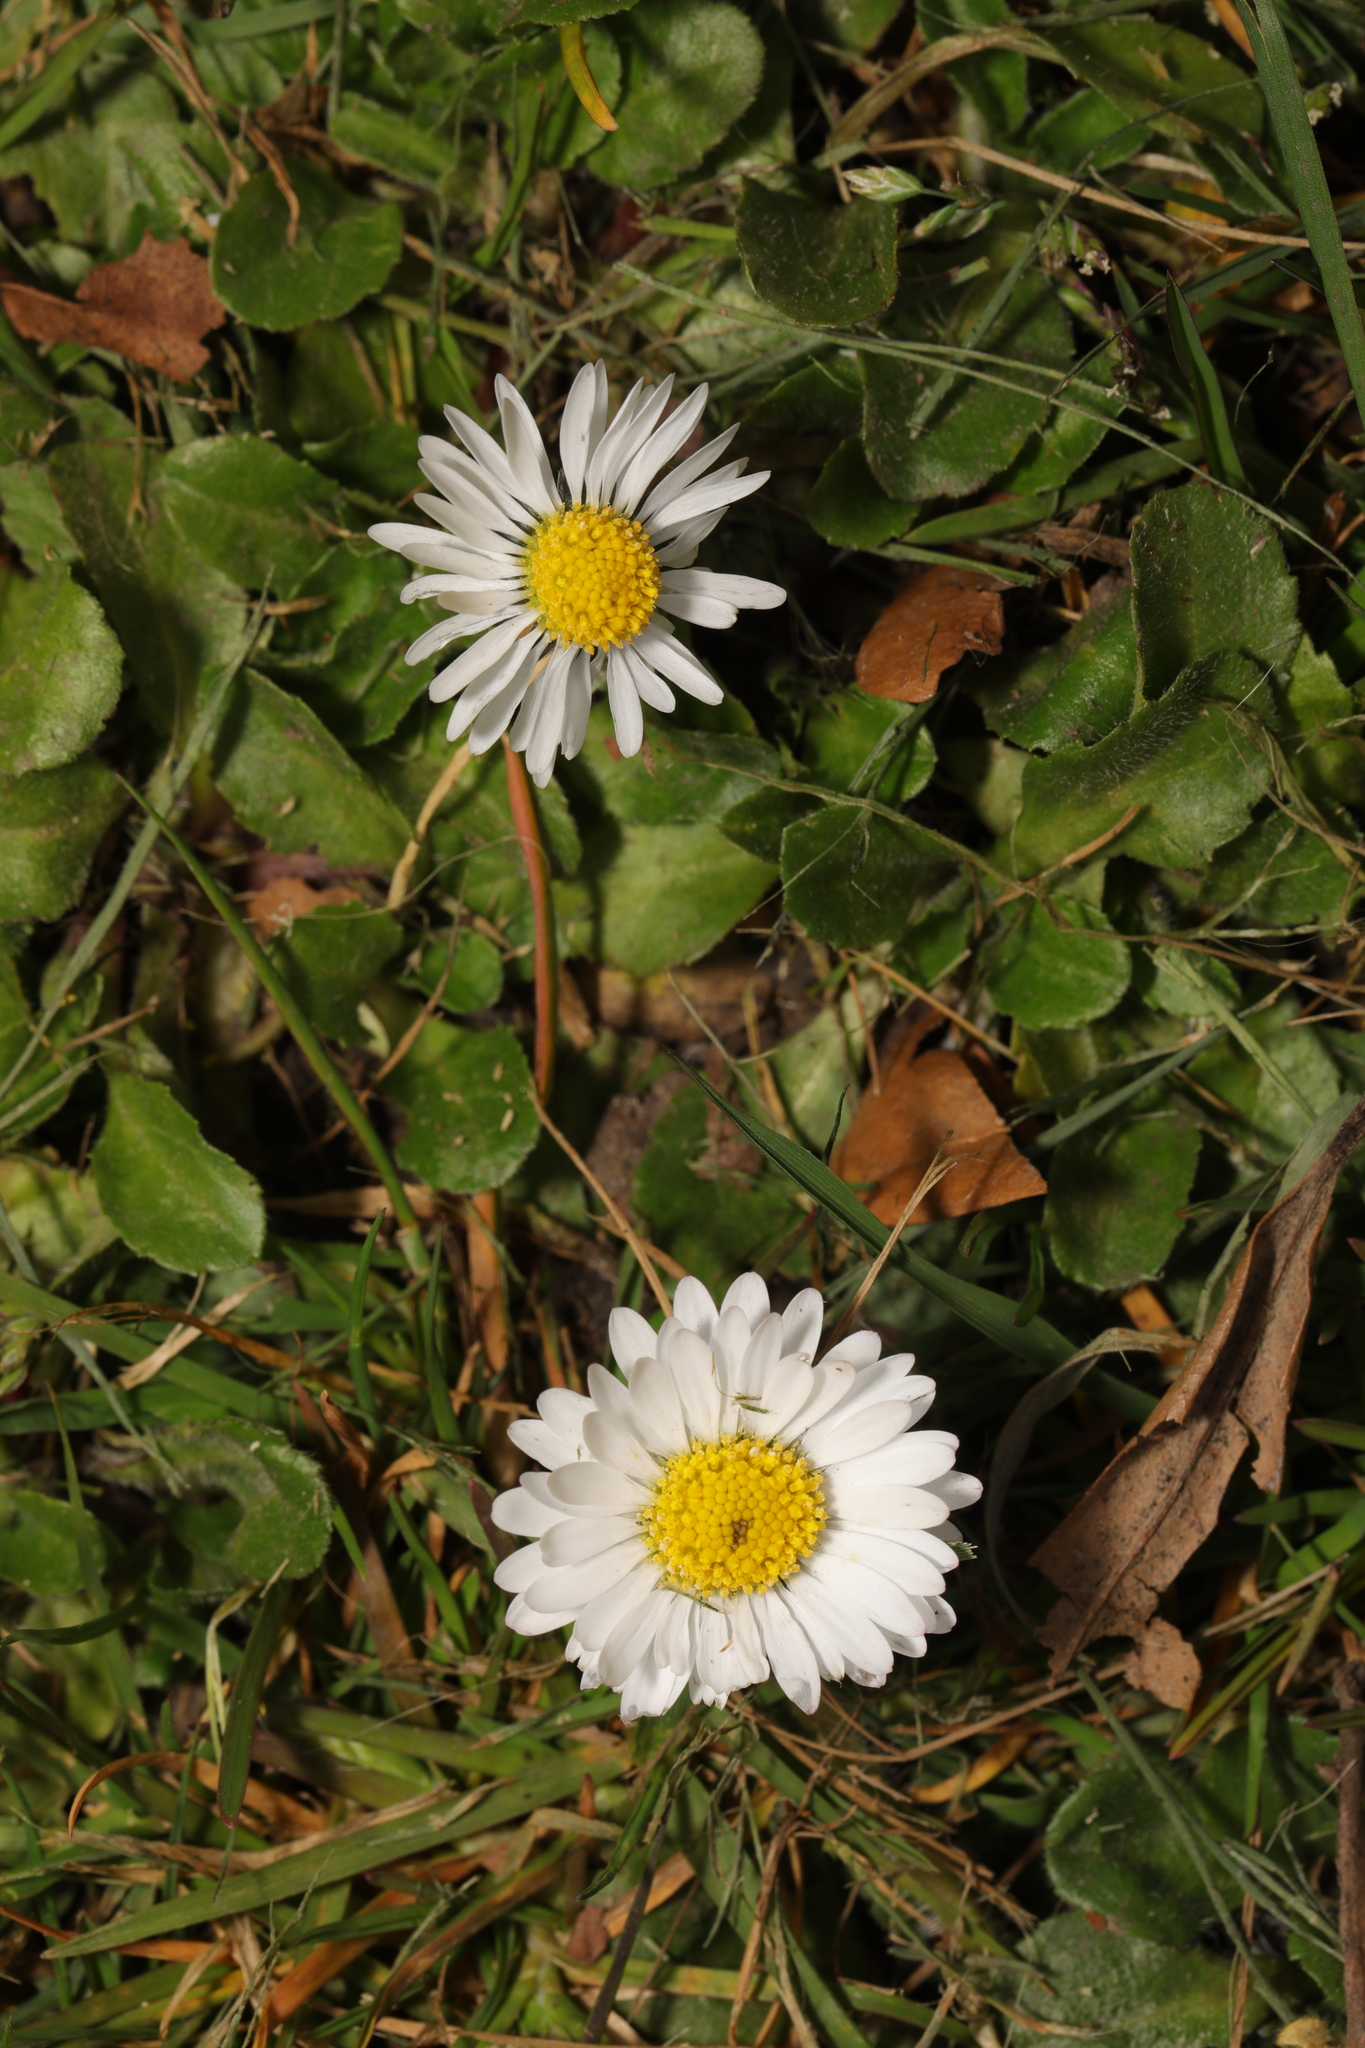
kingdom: Plantae
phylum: Tracheophyta
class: Magnoliopsida
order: Asterales
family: Asteraceae
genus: Bellis
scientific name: Bellis perennis
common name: Lawndaisy
